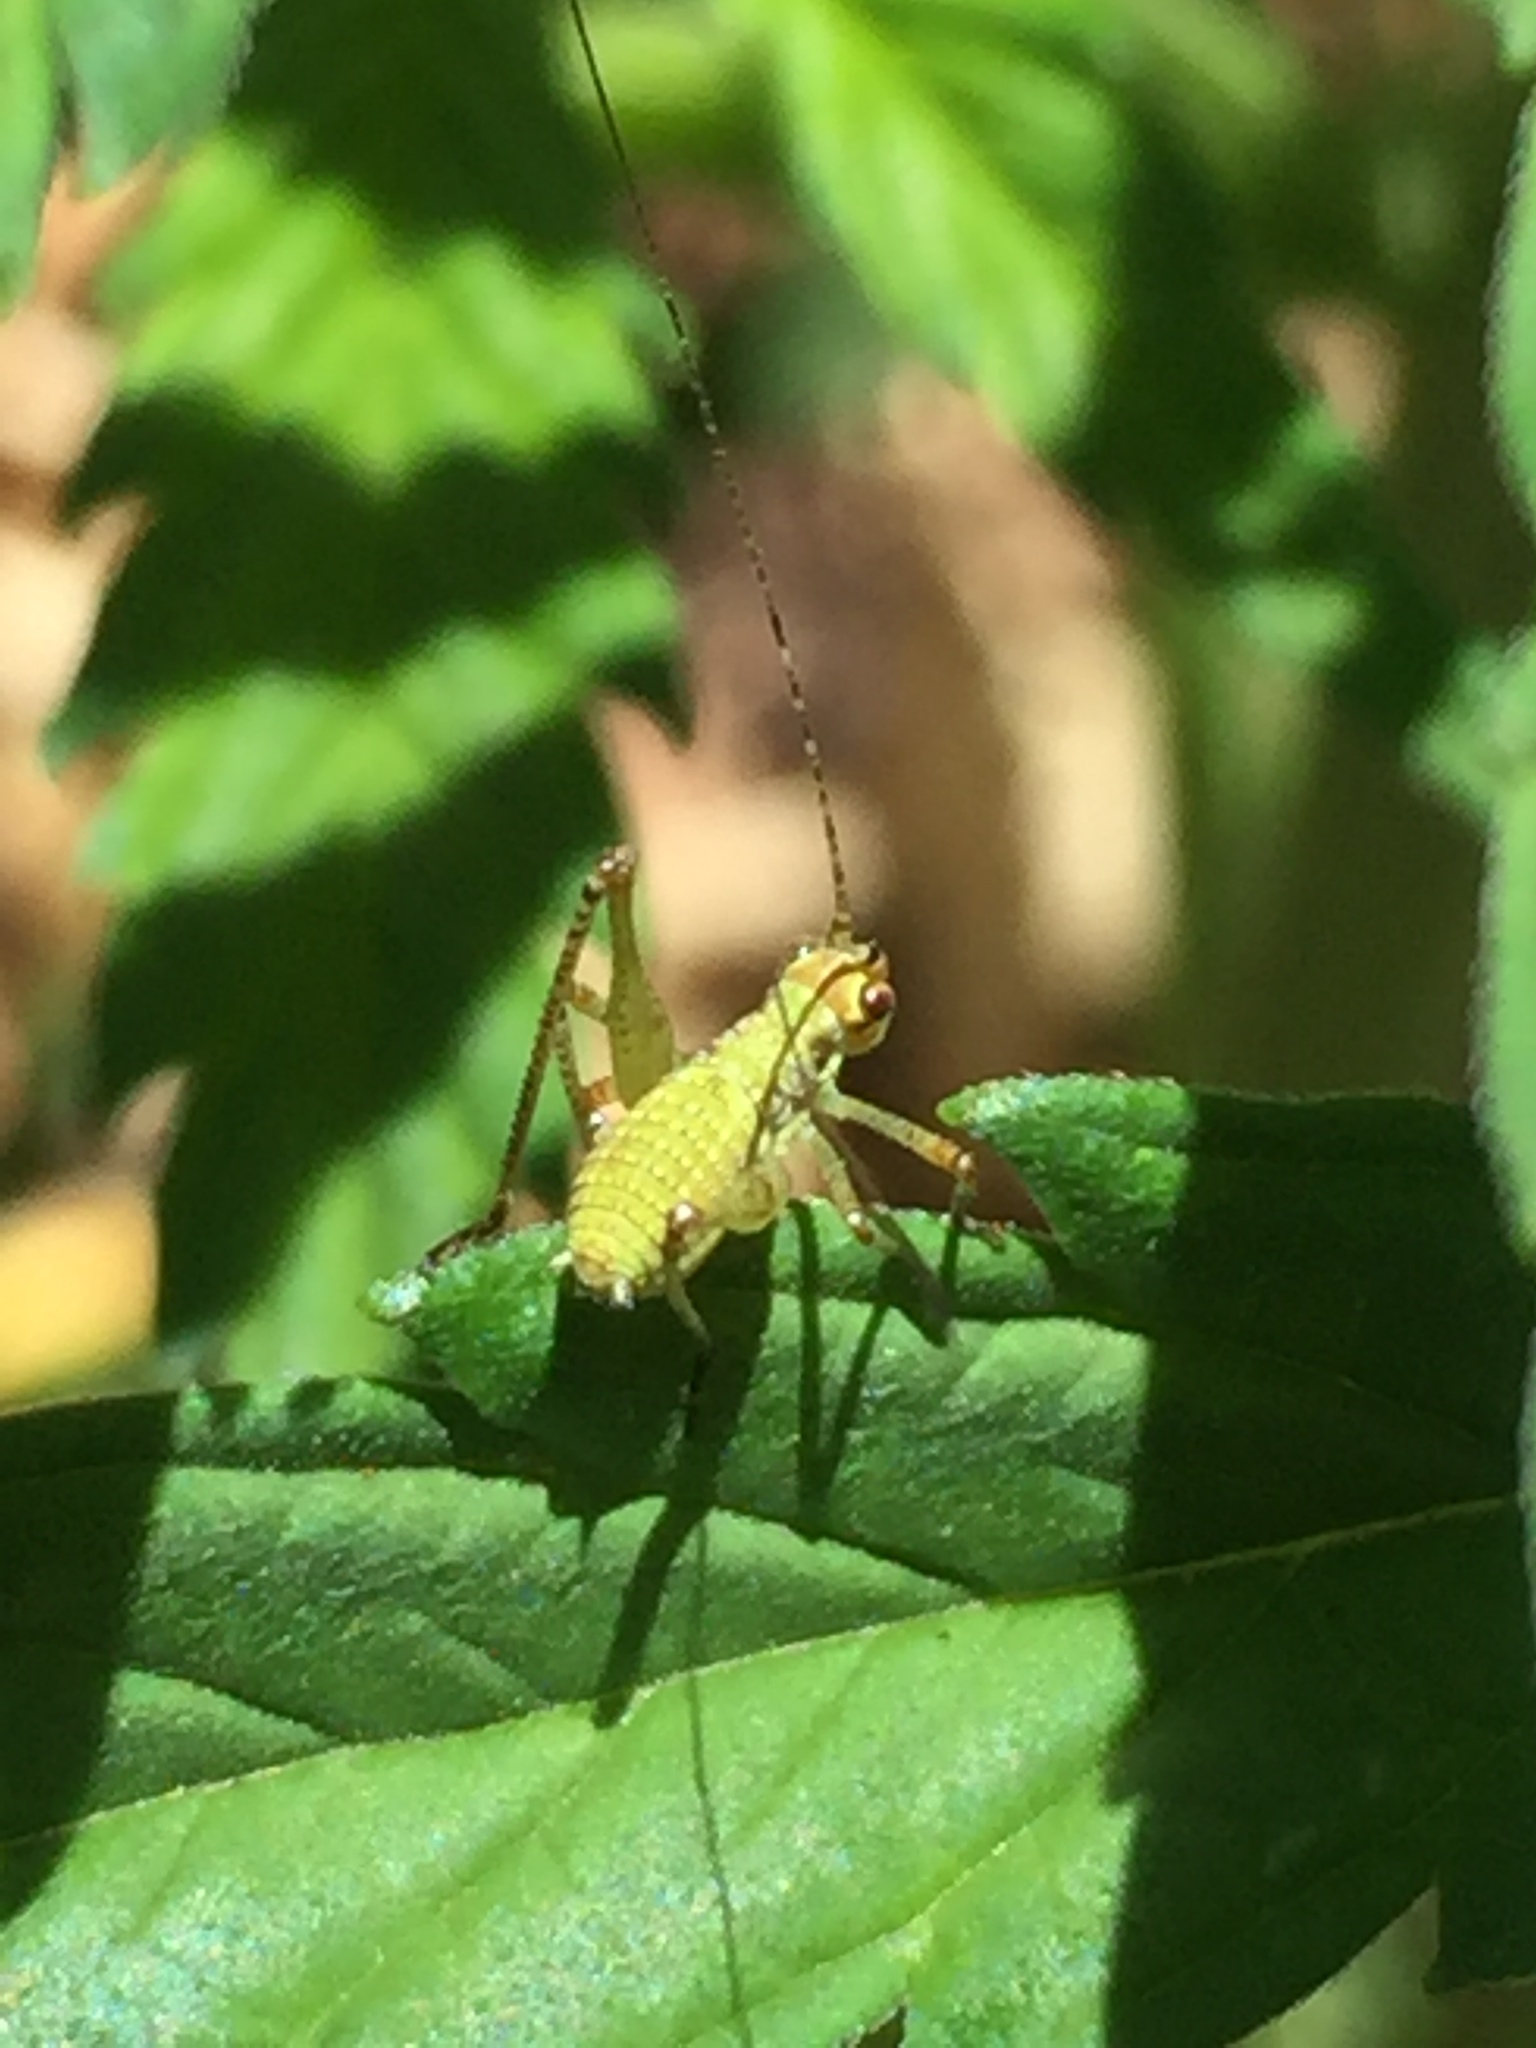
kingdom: Animalia
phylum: Arthropoda
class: Insecta
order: Orthoptera
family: Tettigoniidae
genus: Phaneroptera
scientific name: Phaneroptera nana
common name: Southern sickle bush-cricket
